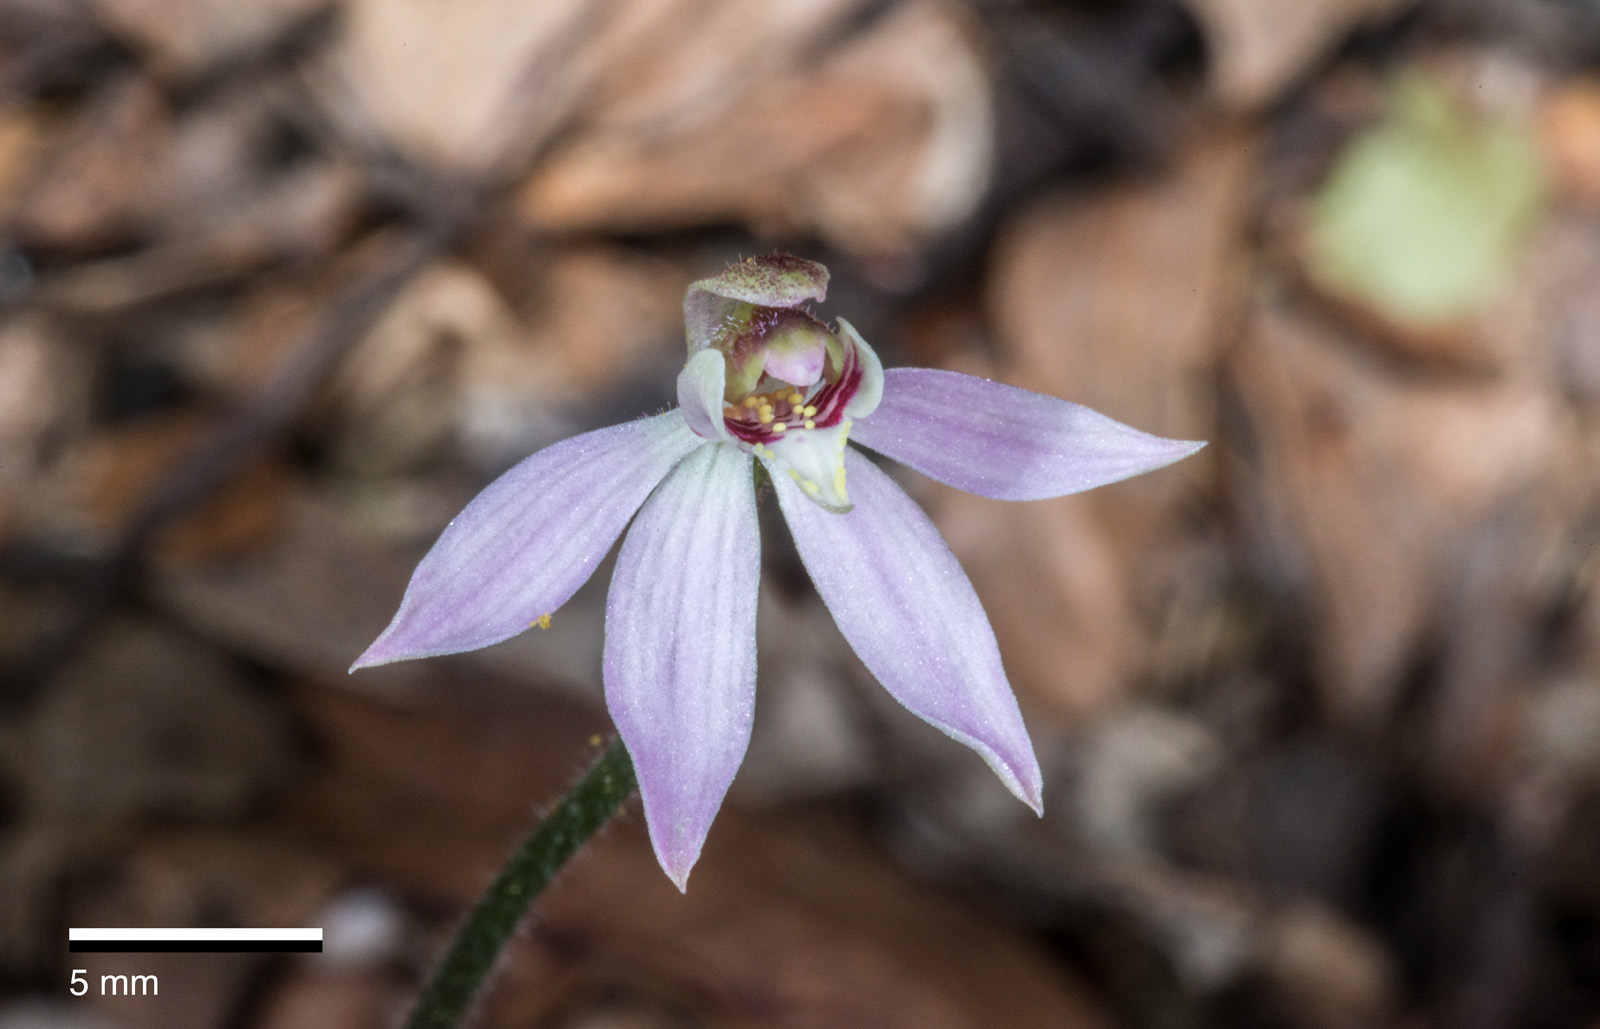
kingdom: Plantae
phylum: Tracheophyta
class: Liliopsida
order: Asparagales
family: Orchidaceae
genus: Caladenia
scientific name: Caladenia variegata
